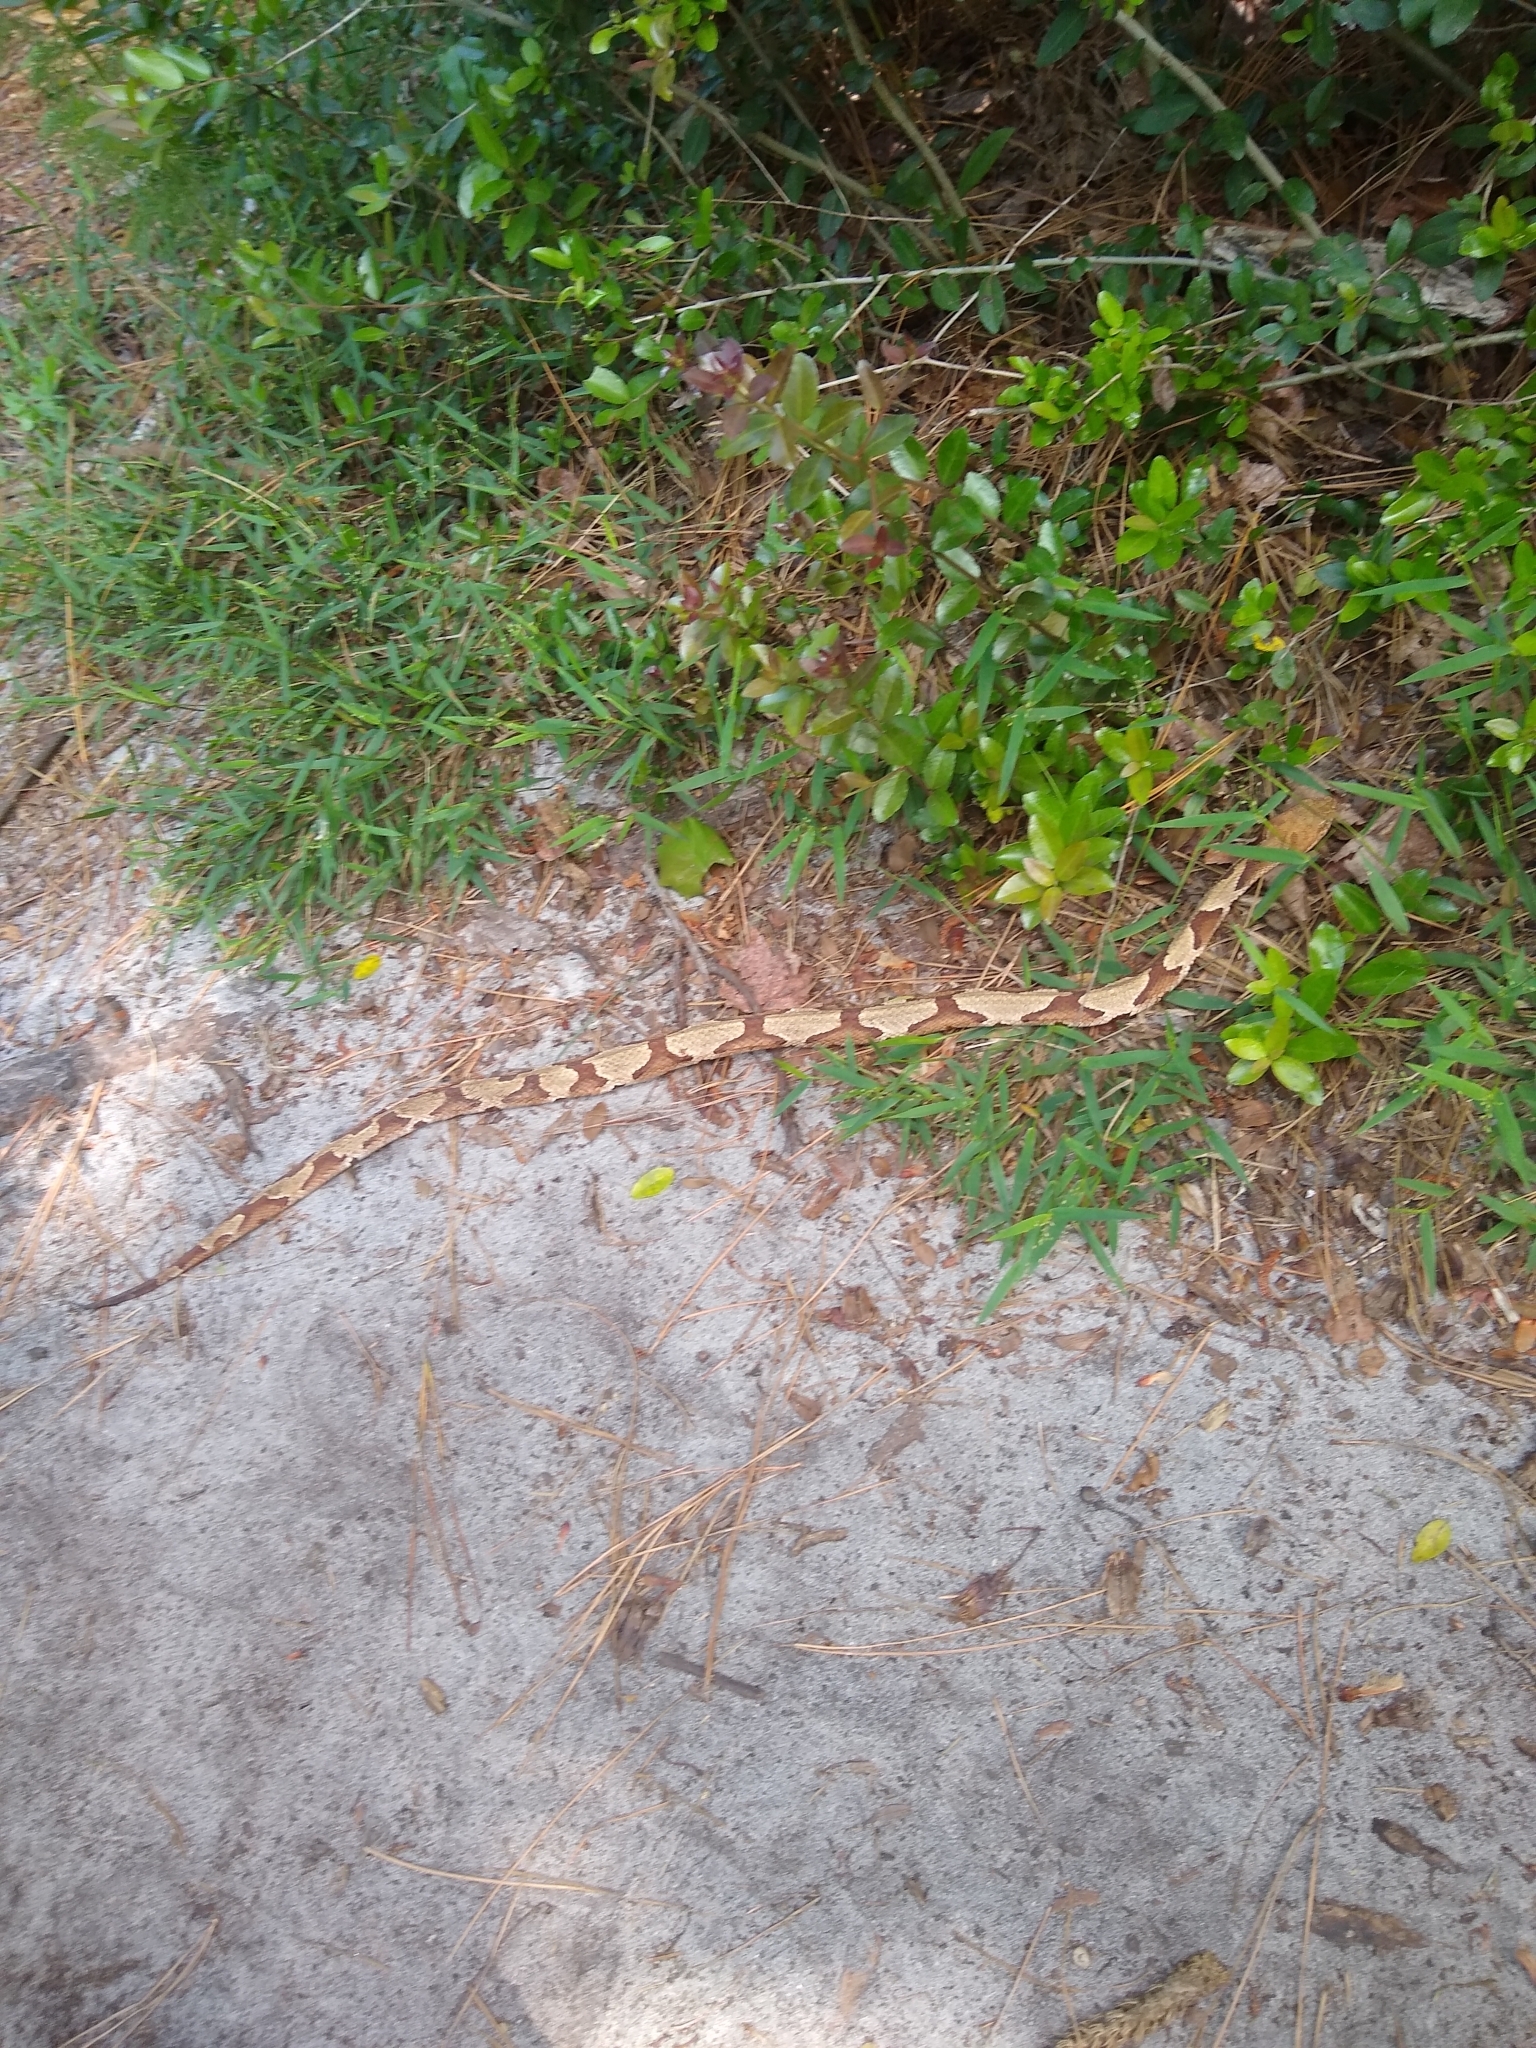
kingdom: Animalia
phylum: Chordata
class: Squamata
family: Viperidae
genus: Agkistrodon
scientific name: Agkistrodon contortrix
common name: Northern copperhead
